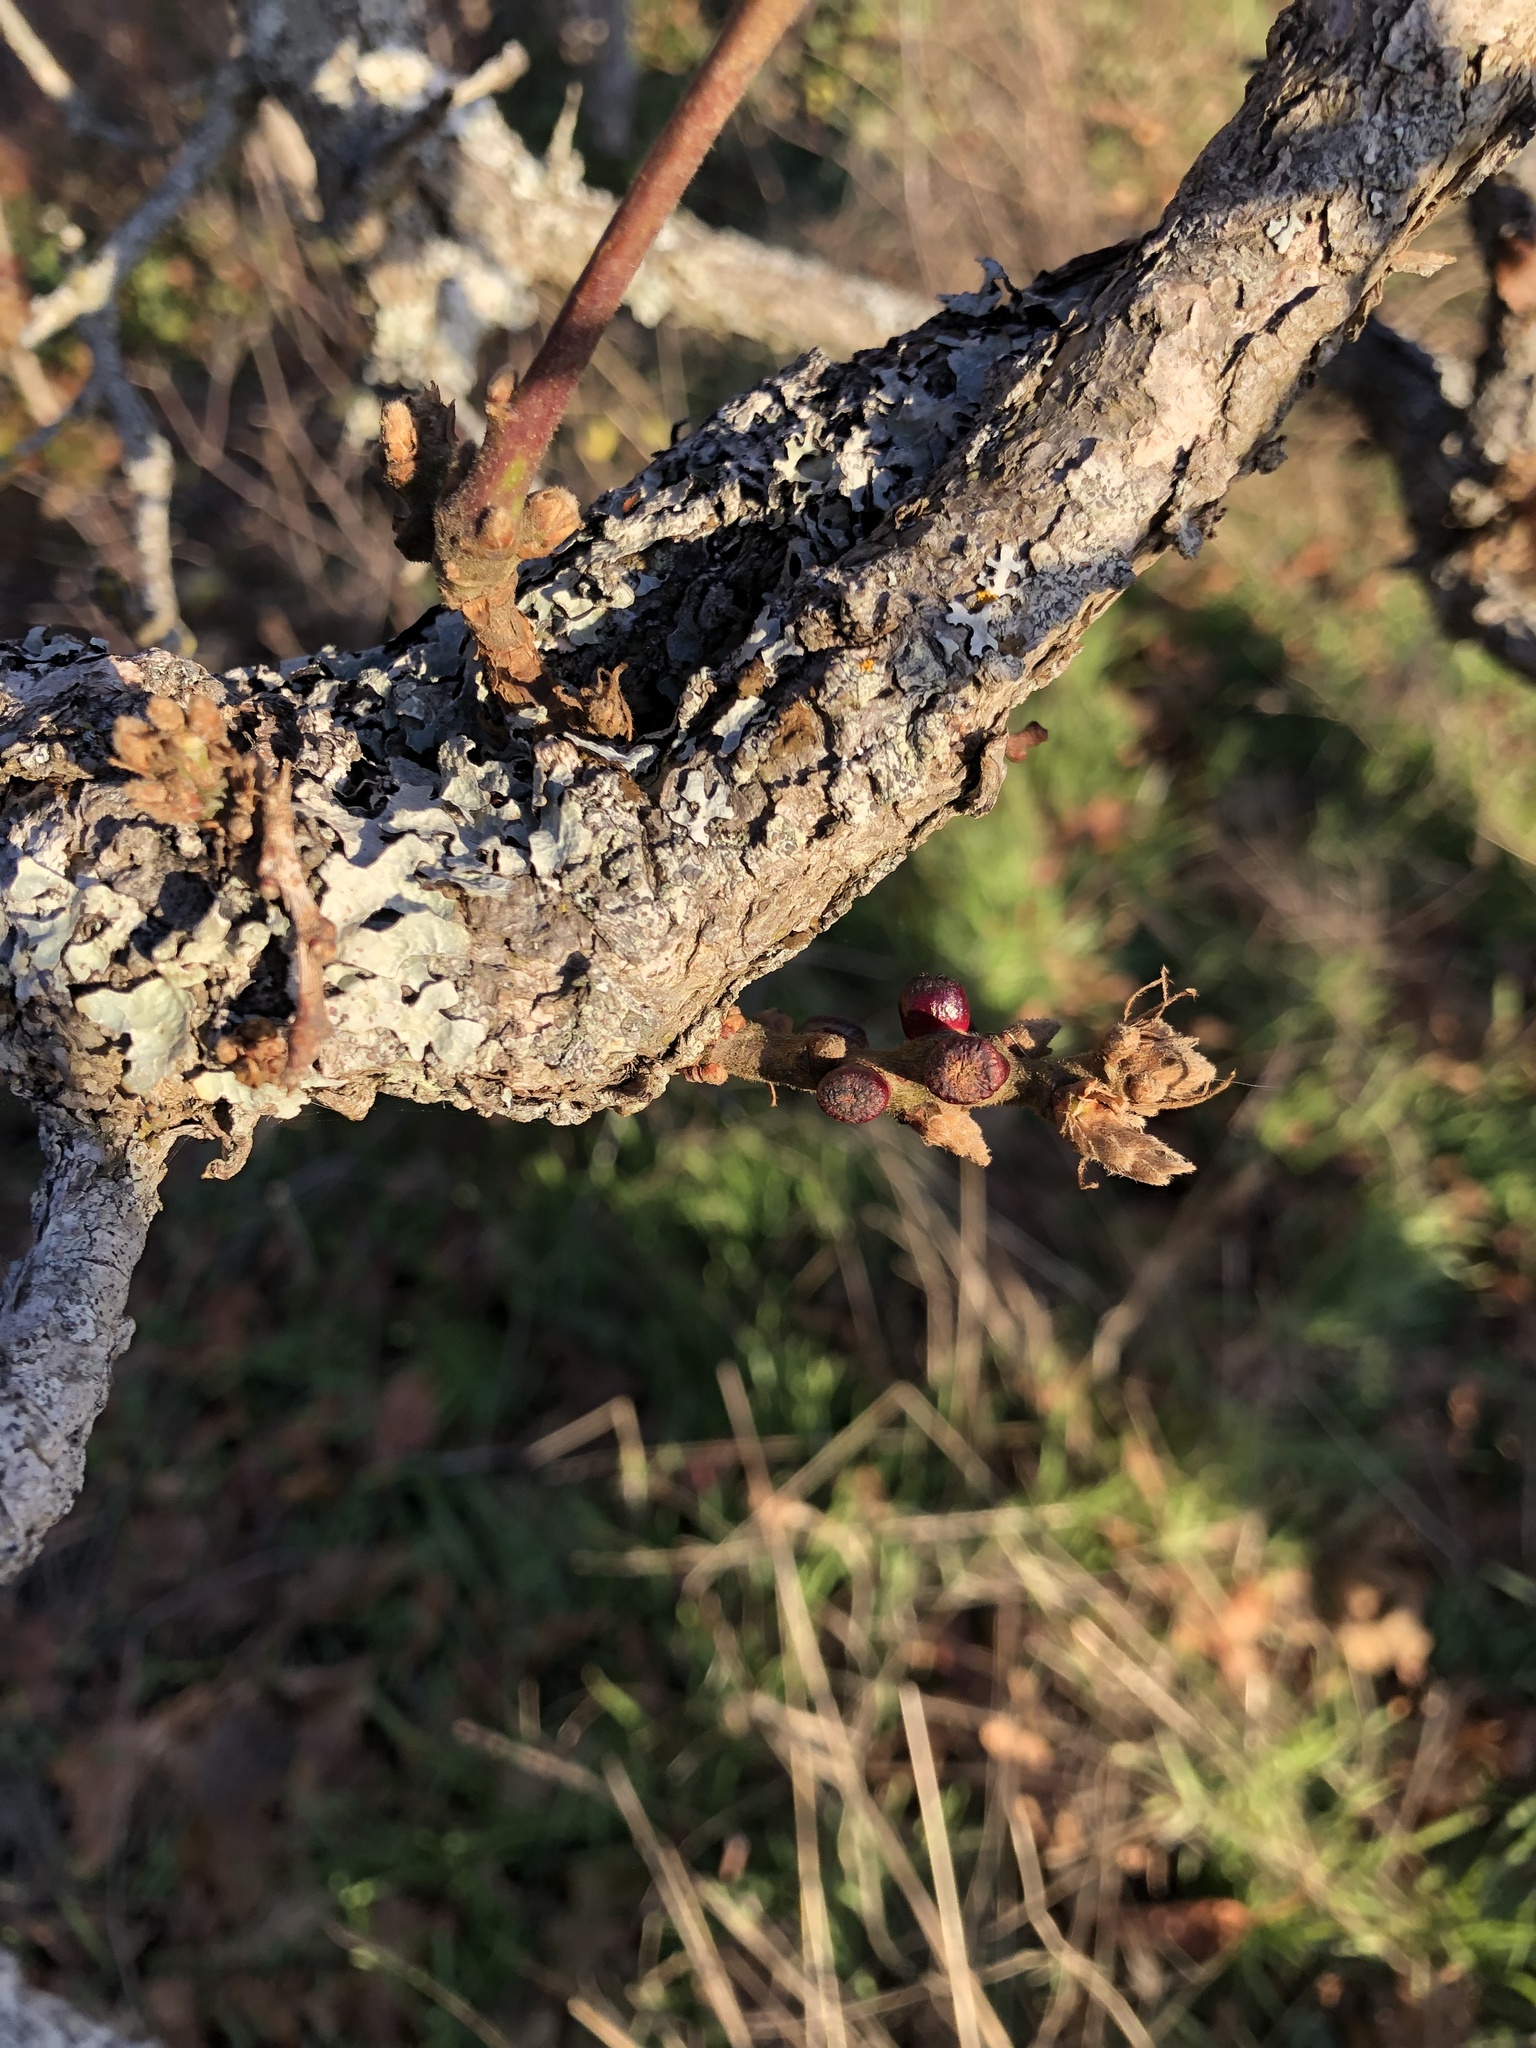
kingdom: Animalia
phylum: Arthropoda
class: Insecta
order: Hymenoptera
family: Cynipidae
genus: Disholcaspis
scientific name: Disholcaspis
